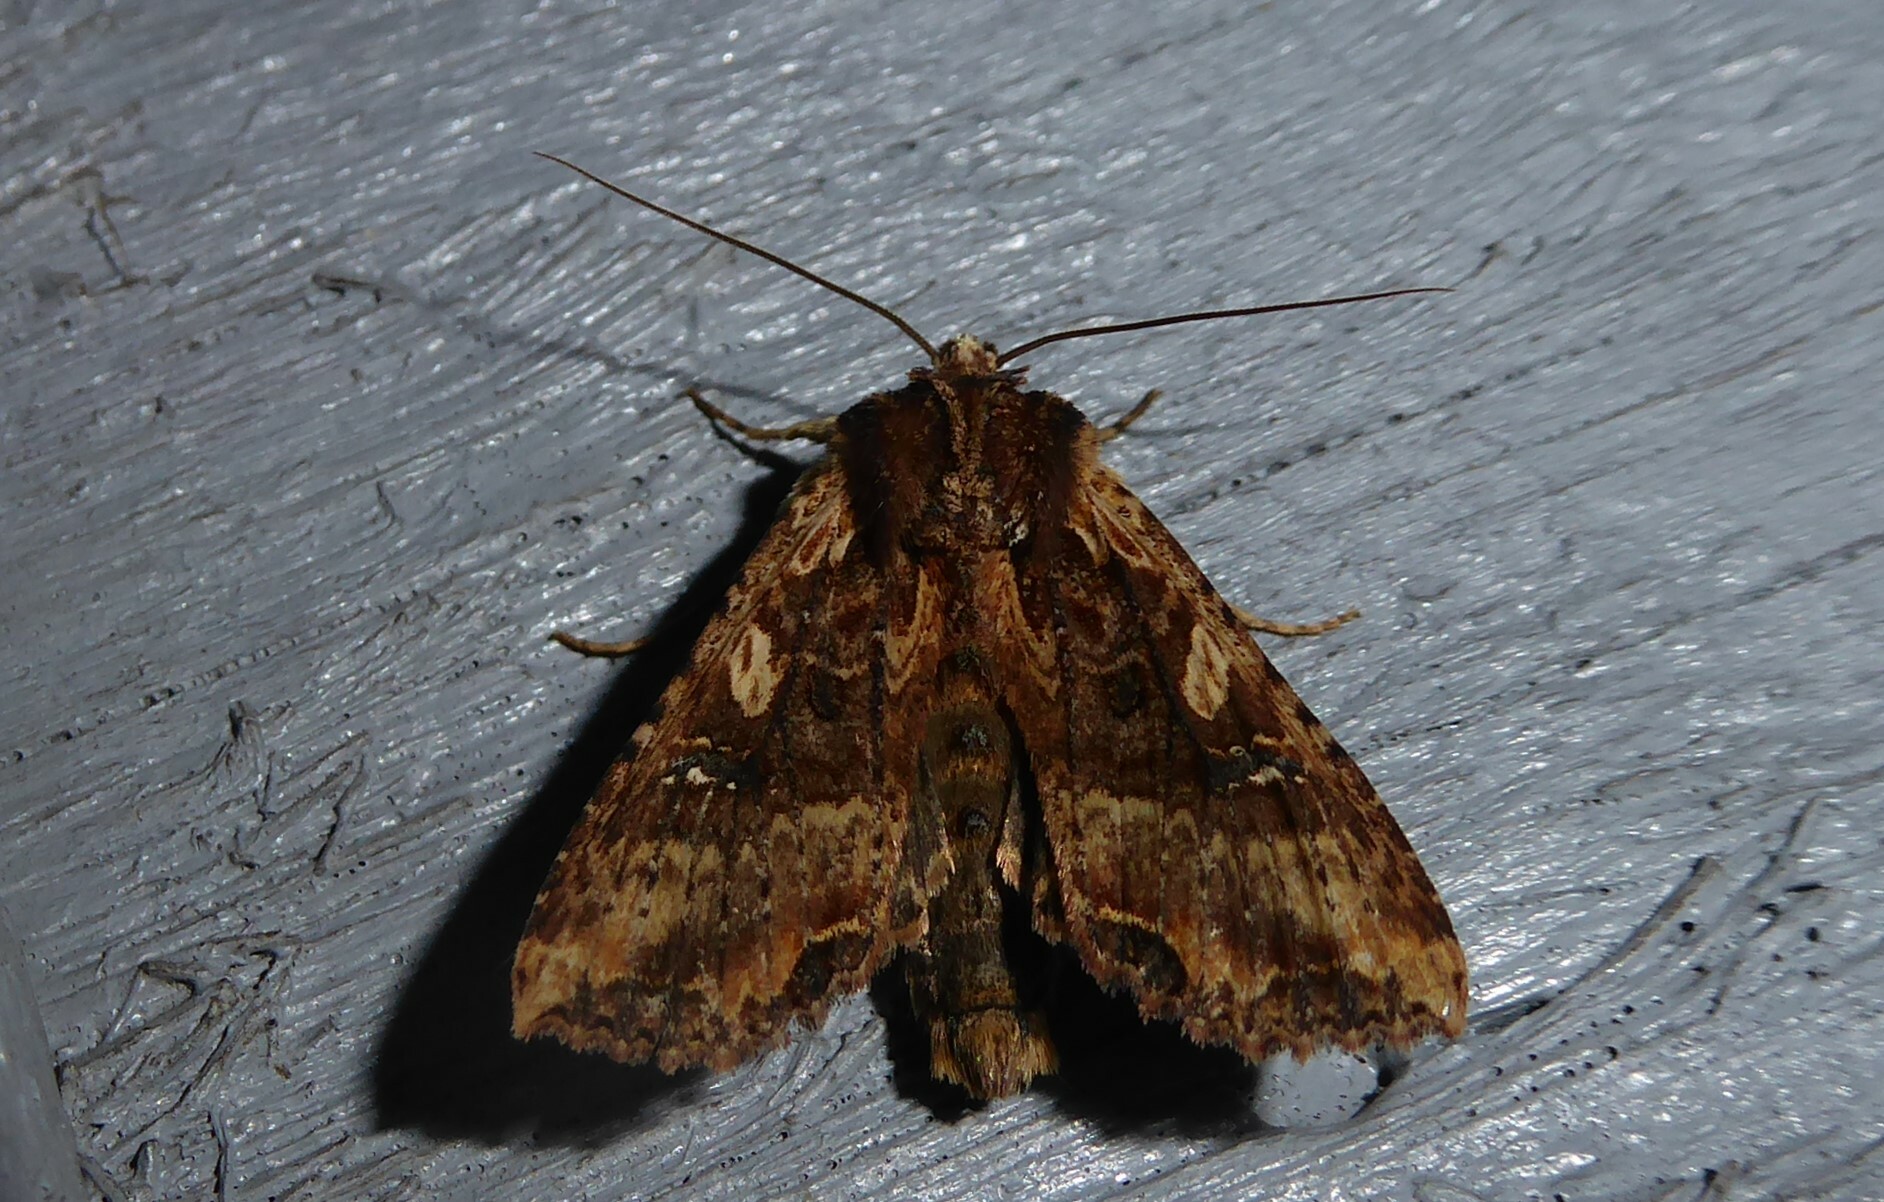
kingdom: Animalia
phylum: Arthropoda
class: Insecta
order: Lepidoptera
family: Noctuidae
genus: Meterana
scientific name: Meterana stipata
